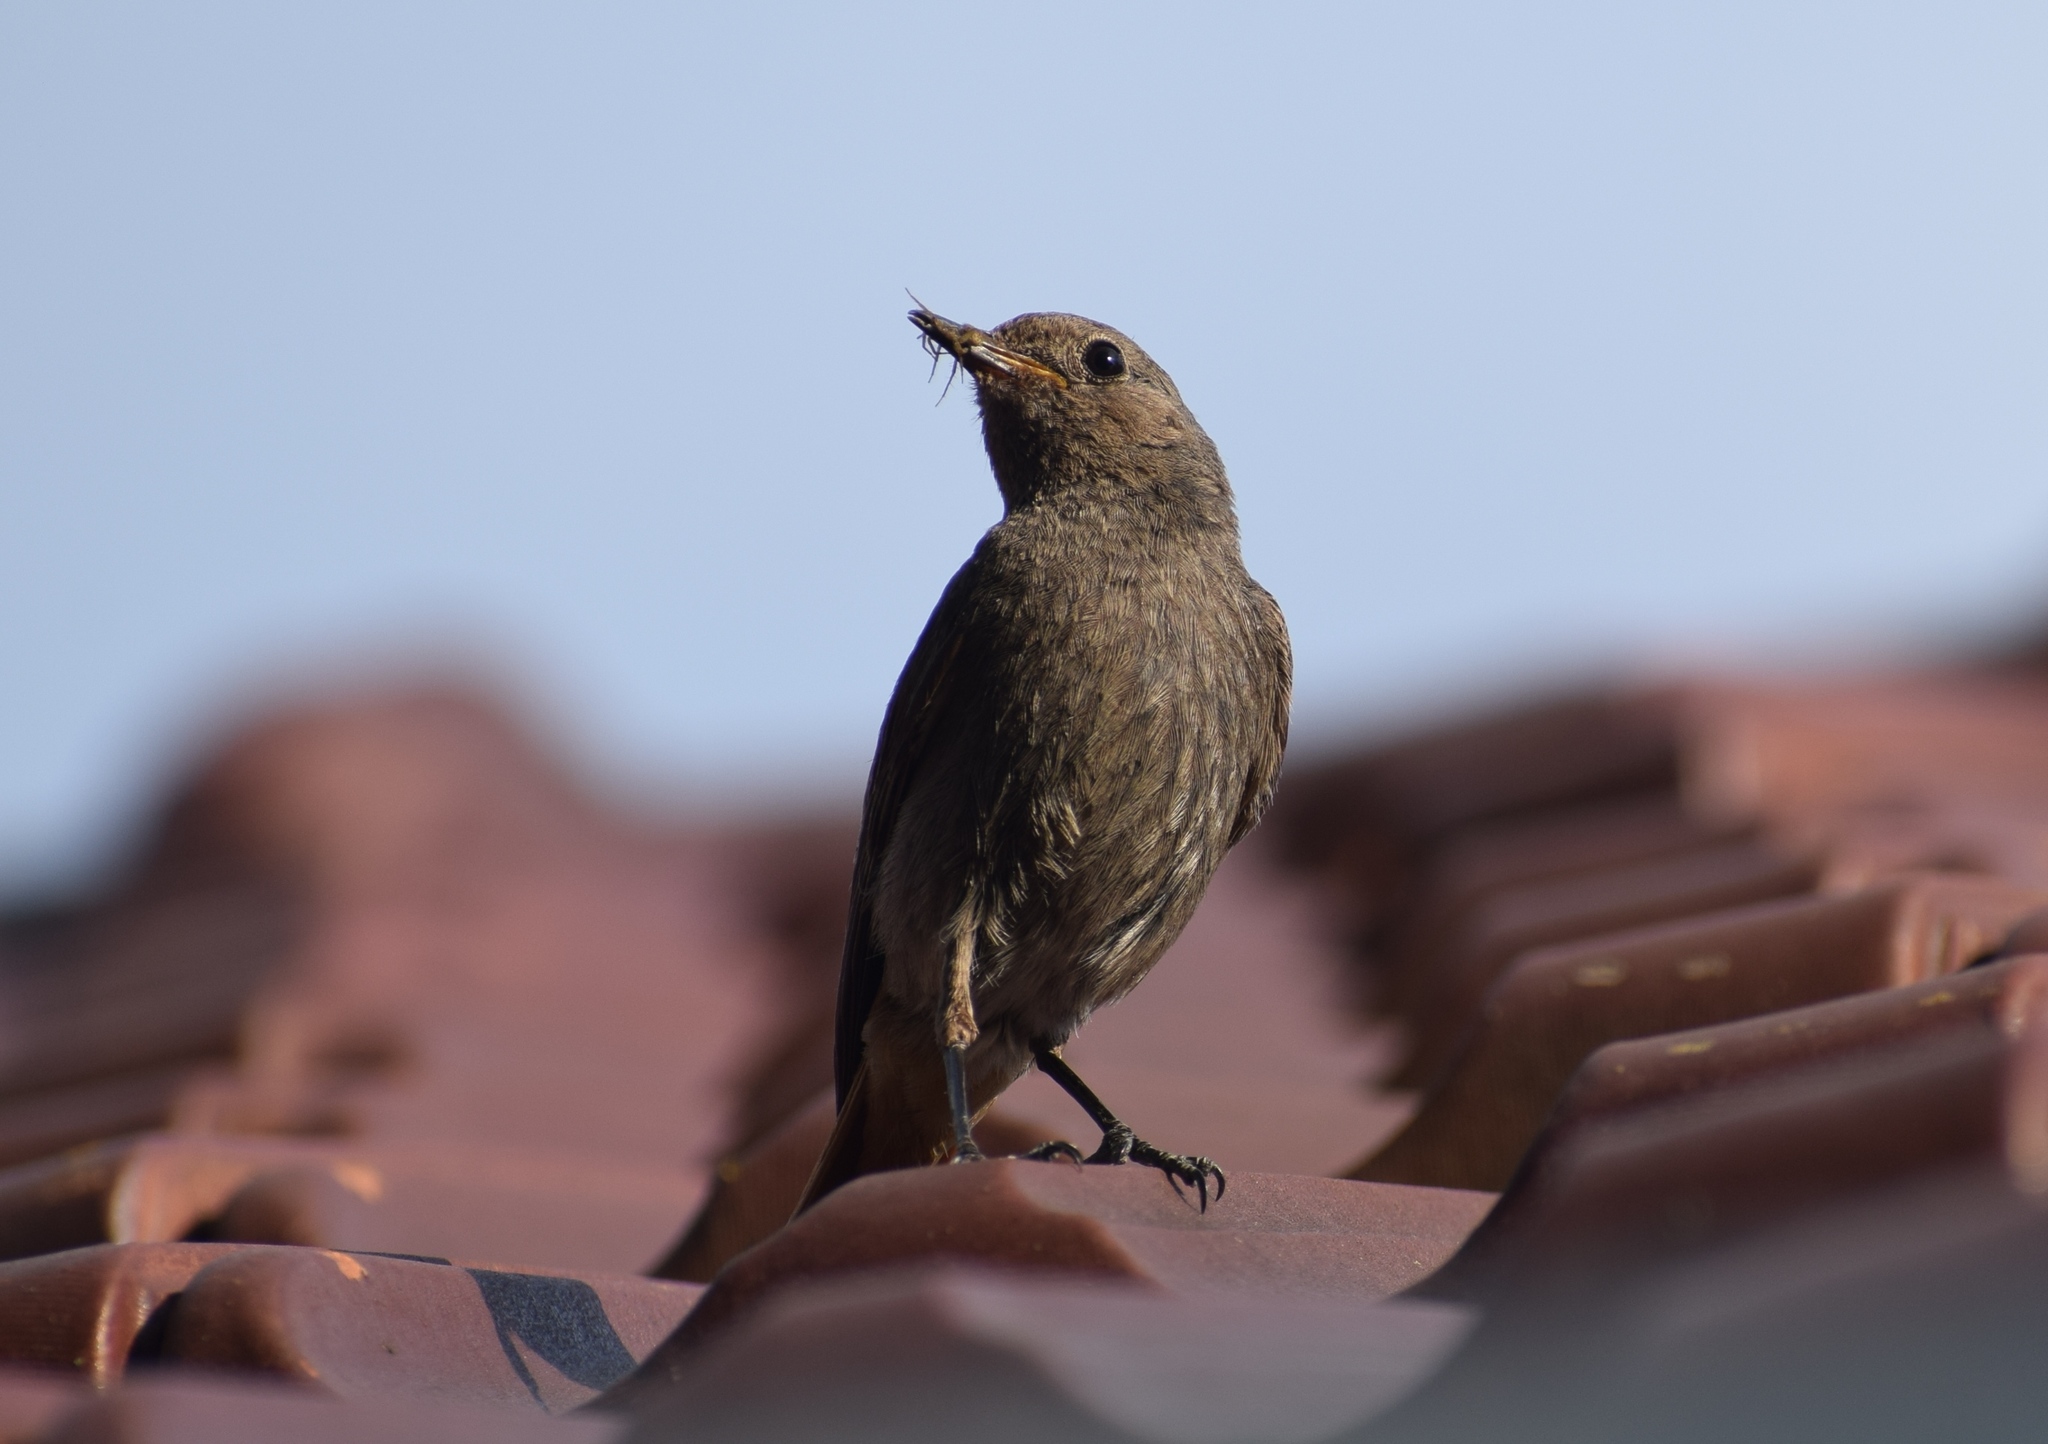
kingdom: Animalia
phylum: Chordata
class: Aves
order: Passeriformes
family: Muscicapidae
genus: Phoenicurus
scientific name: Phoenicurus ochruros
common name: Black redstart
